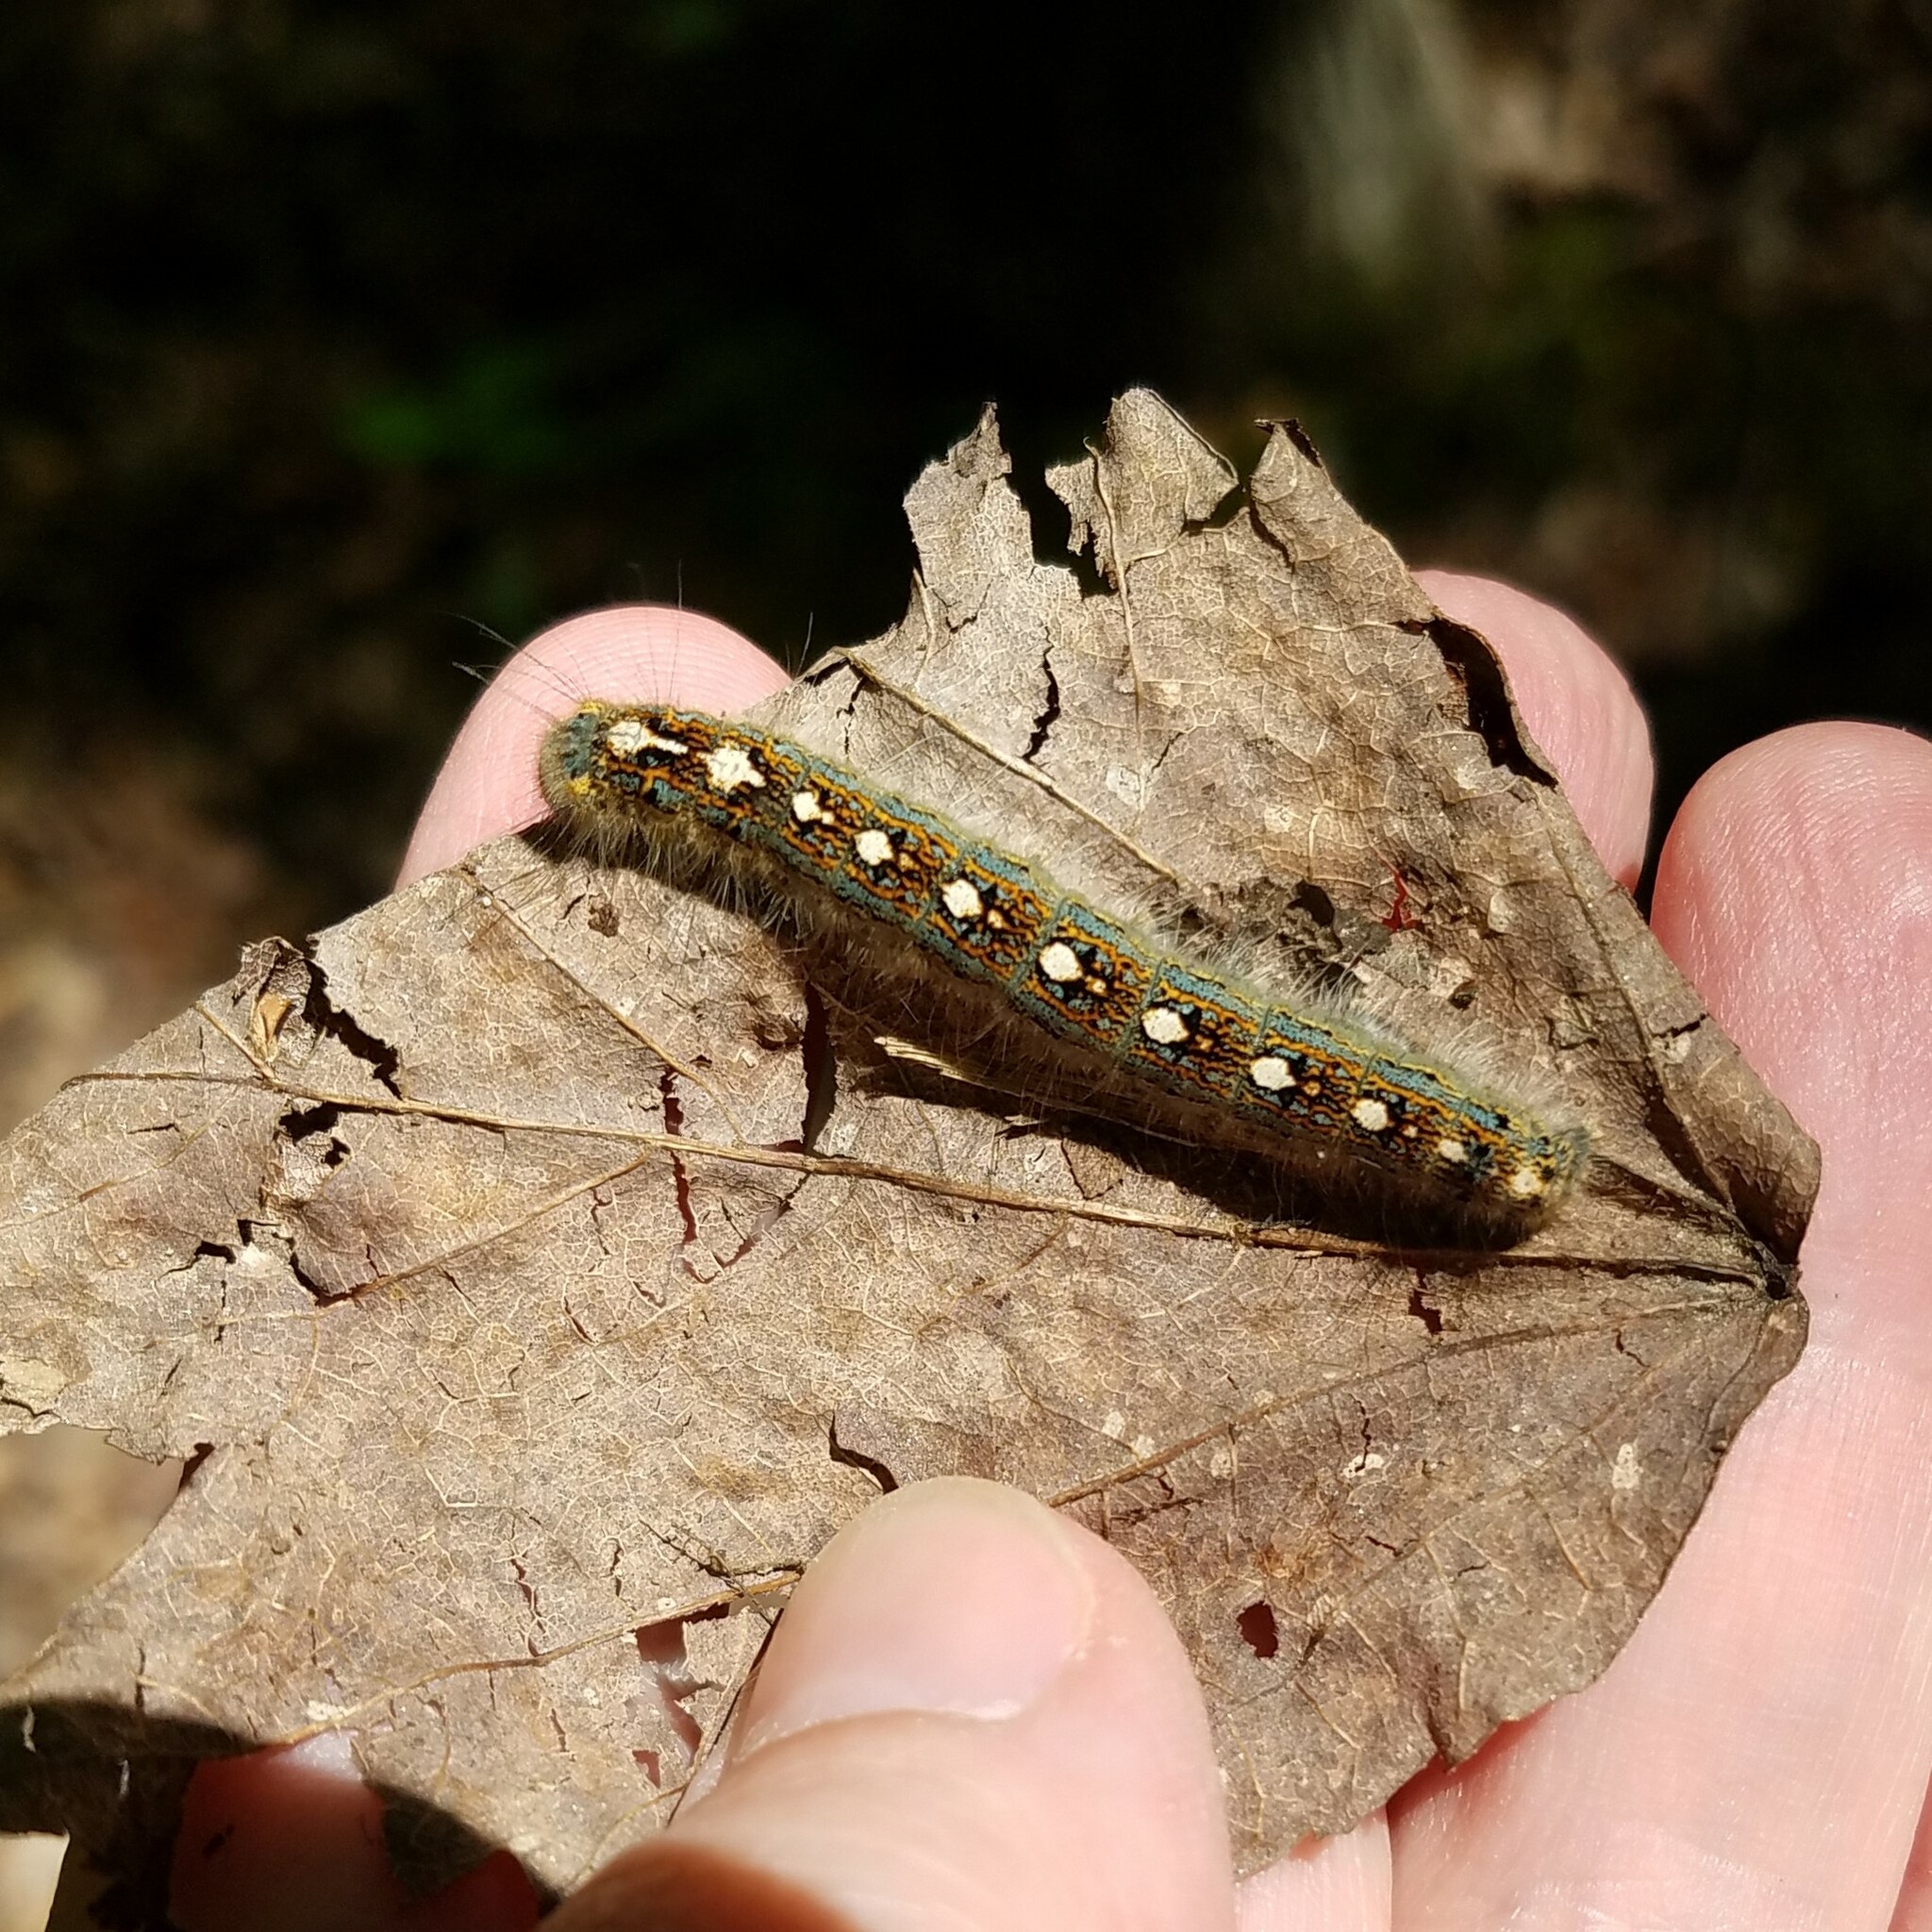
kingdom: Animalia
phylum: Arthropoda
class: Insecta
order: Lepidoptera
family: Lasiocampidae
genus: Malacosoma
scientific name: Malacosoma disstria
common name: Forest tent caterpillar
